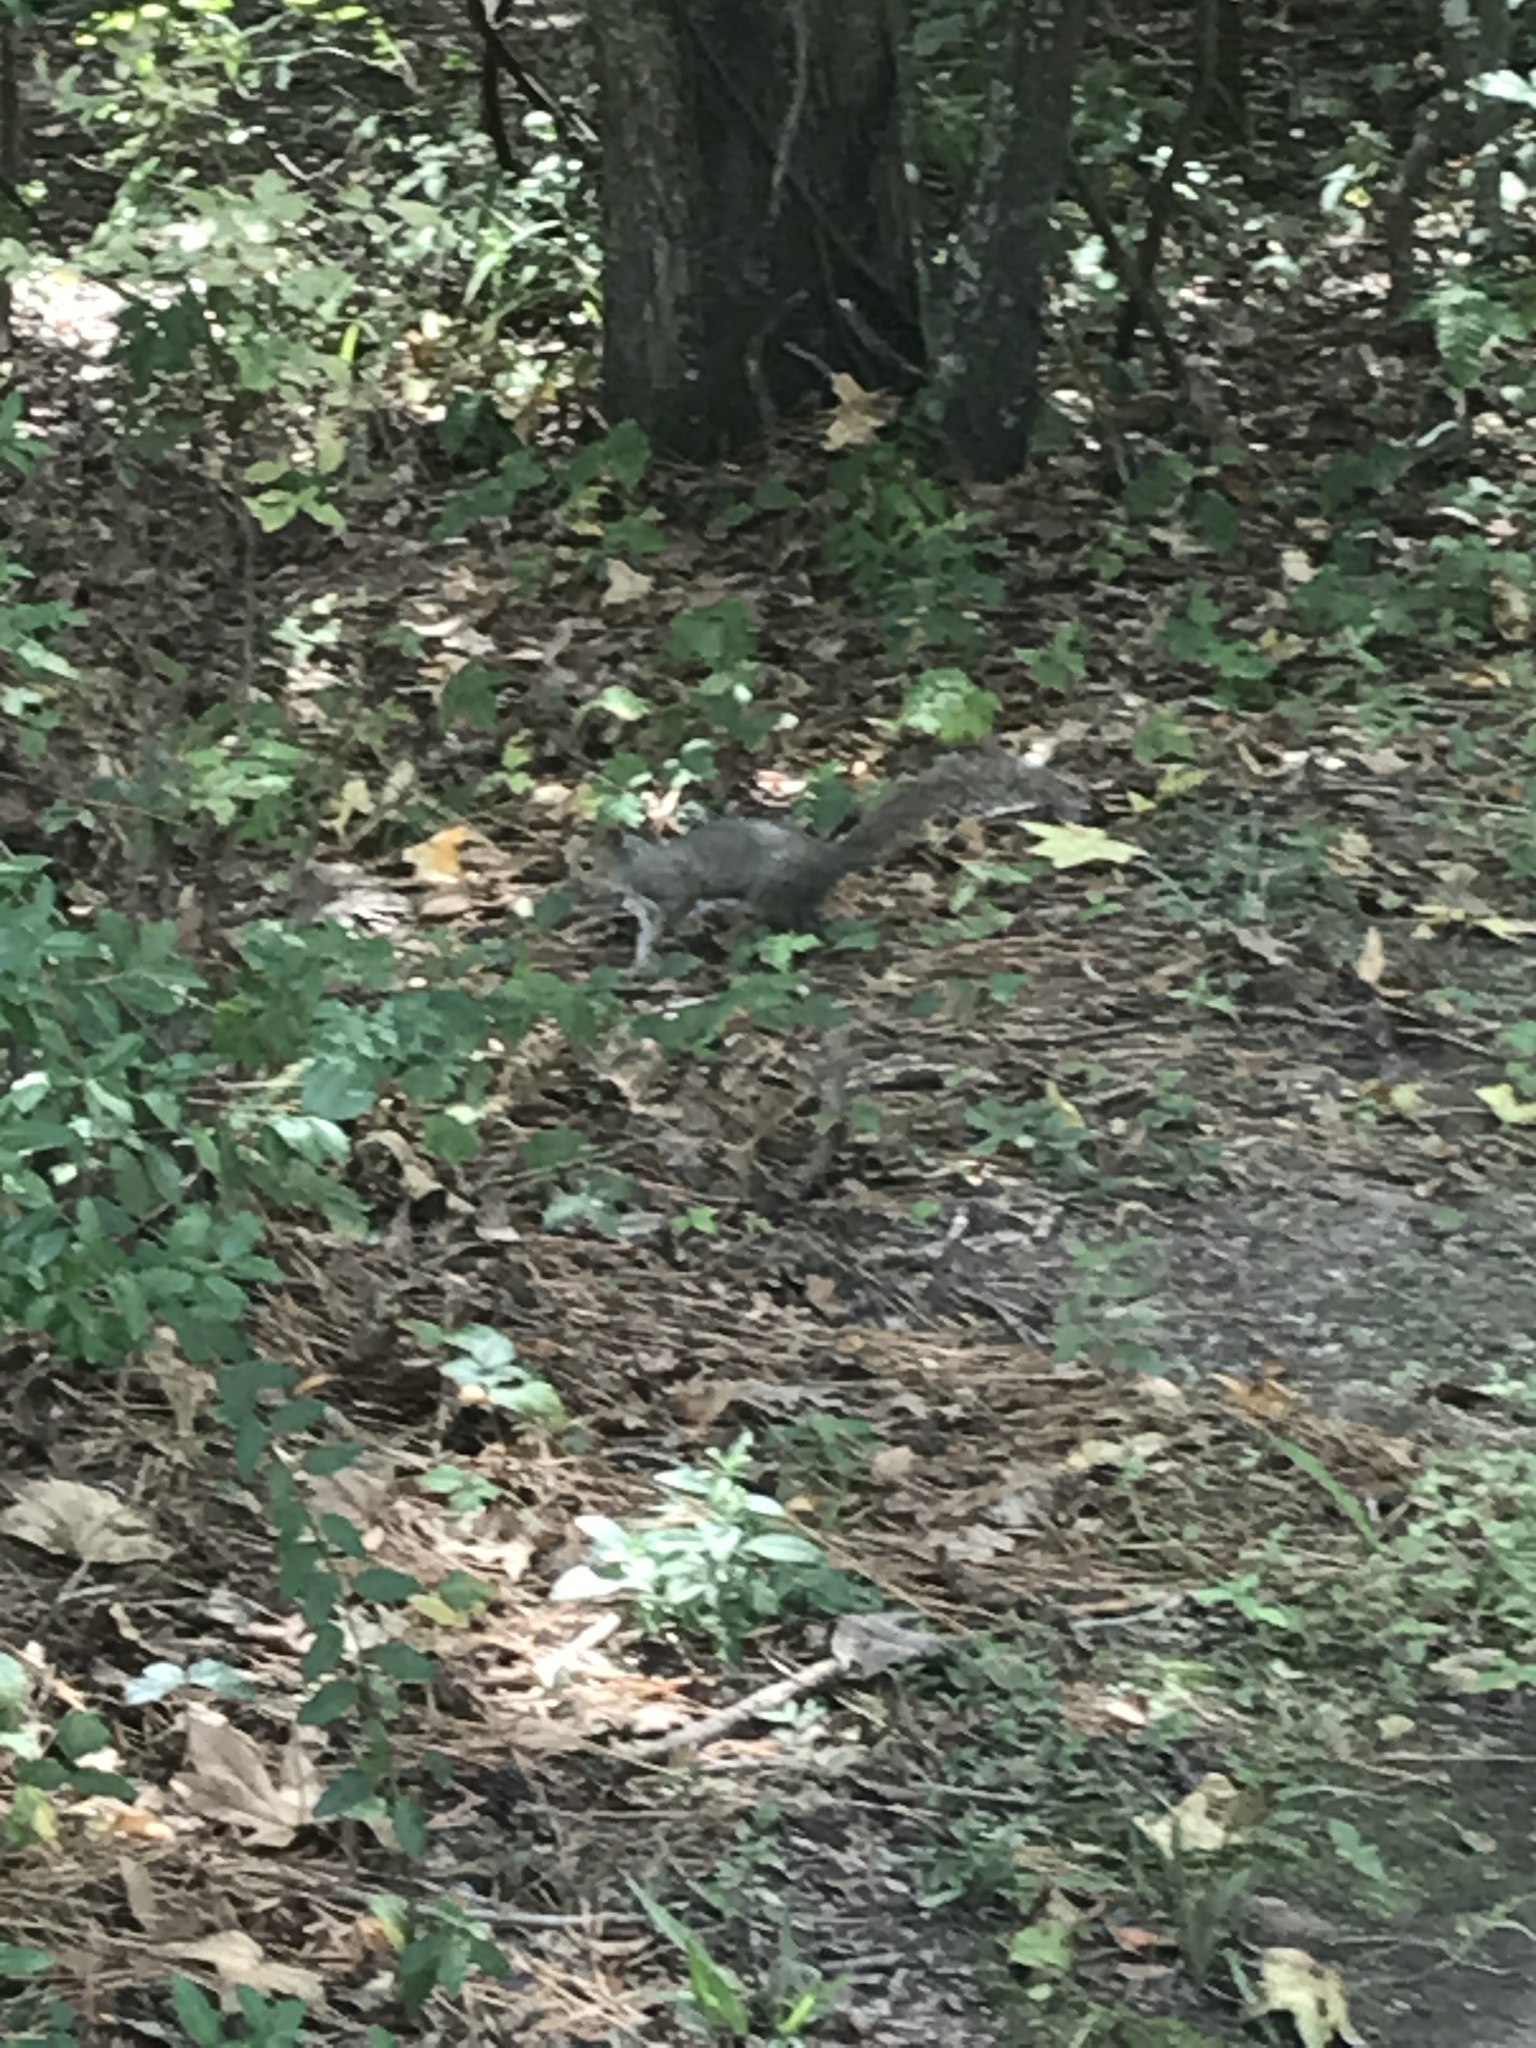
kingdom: Animalia
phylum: Chordata
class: Mammalia
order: Rodentia
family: Sciuridae
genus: Sciurus
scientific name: Sciurus carolinensis
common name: Eastern gray squirrel
